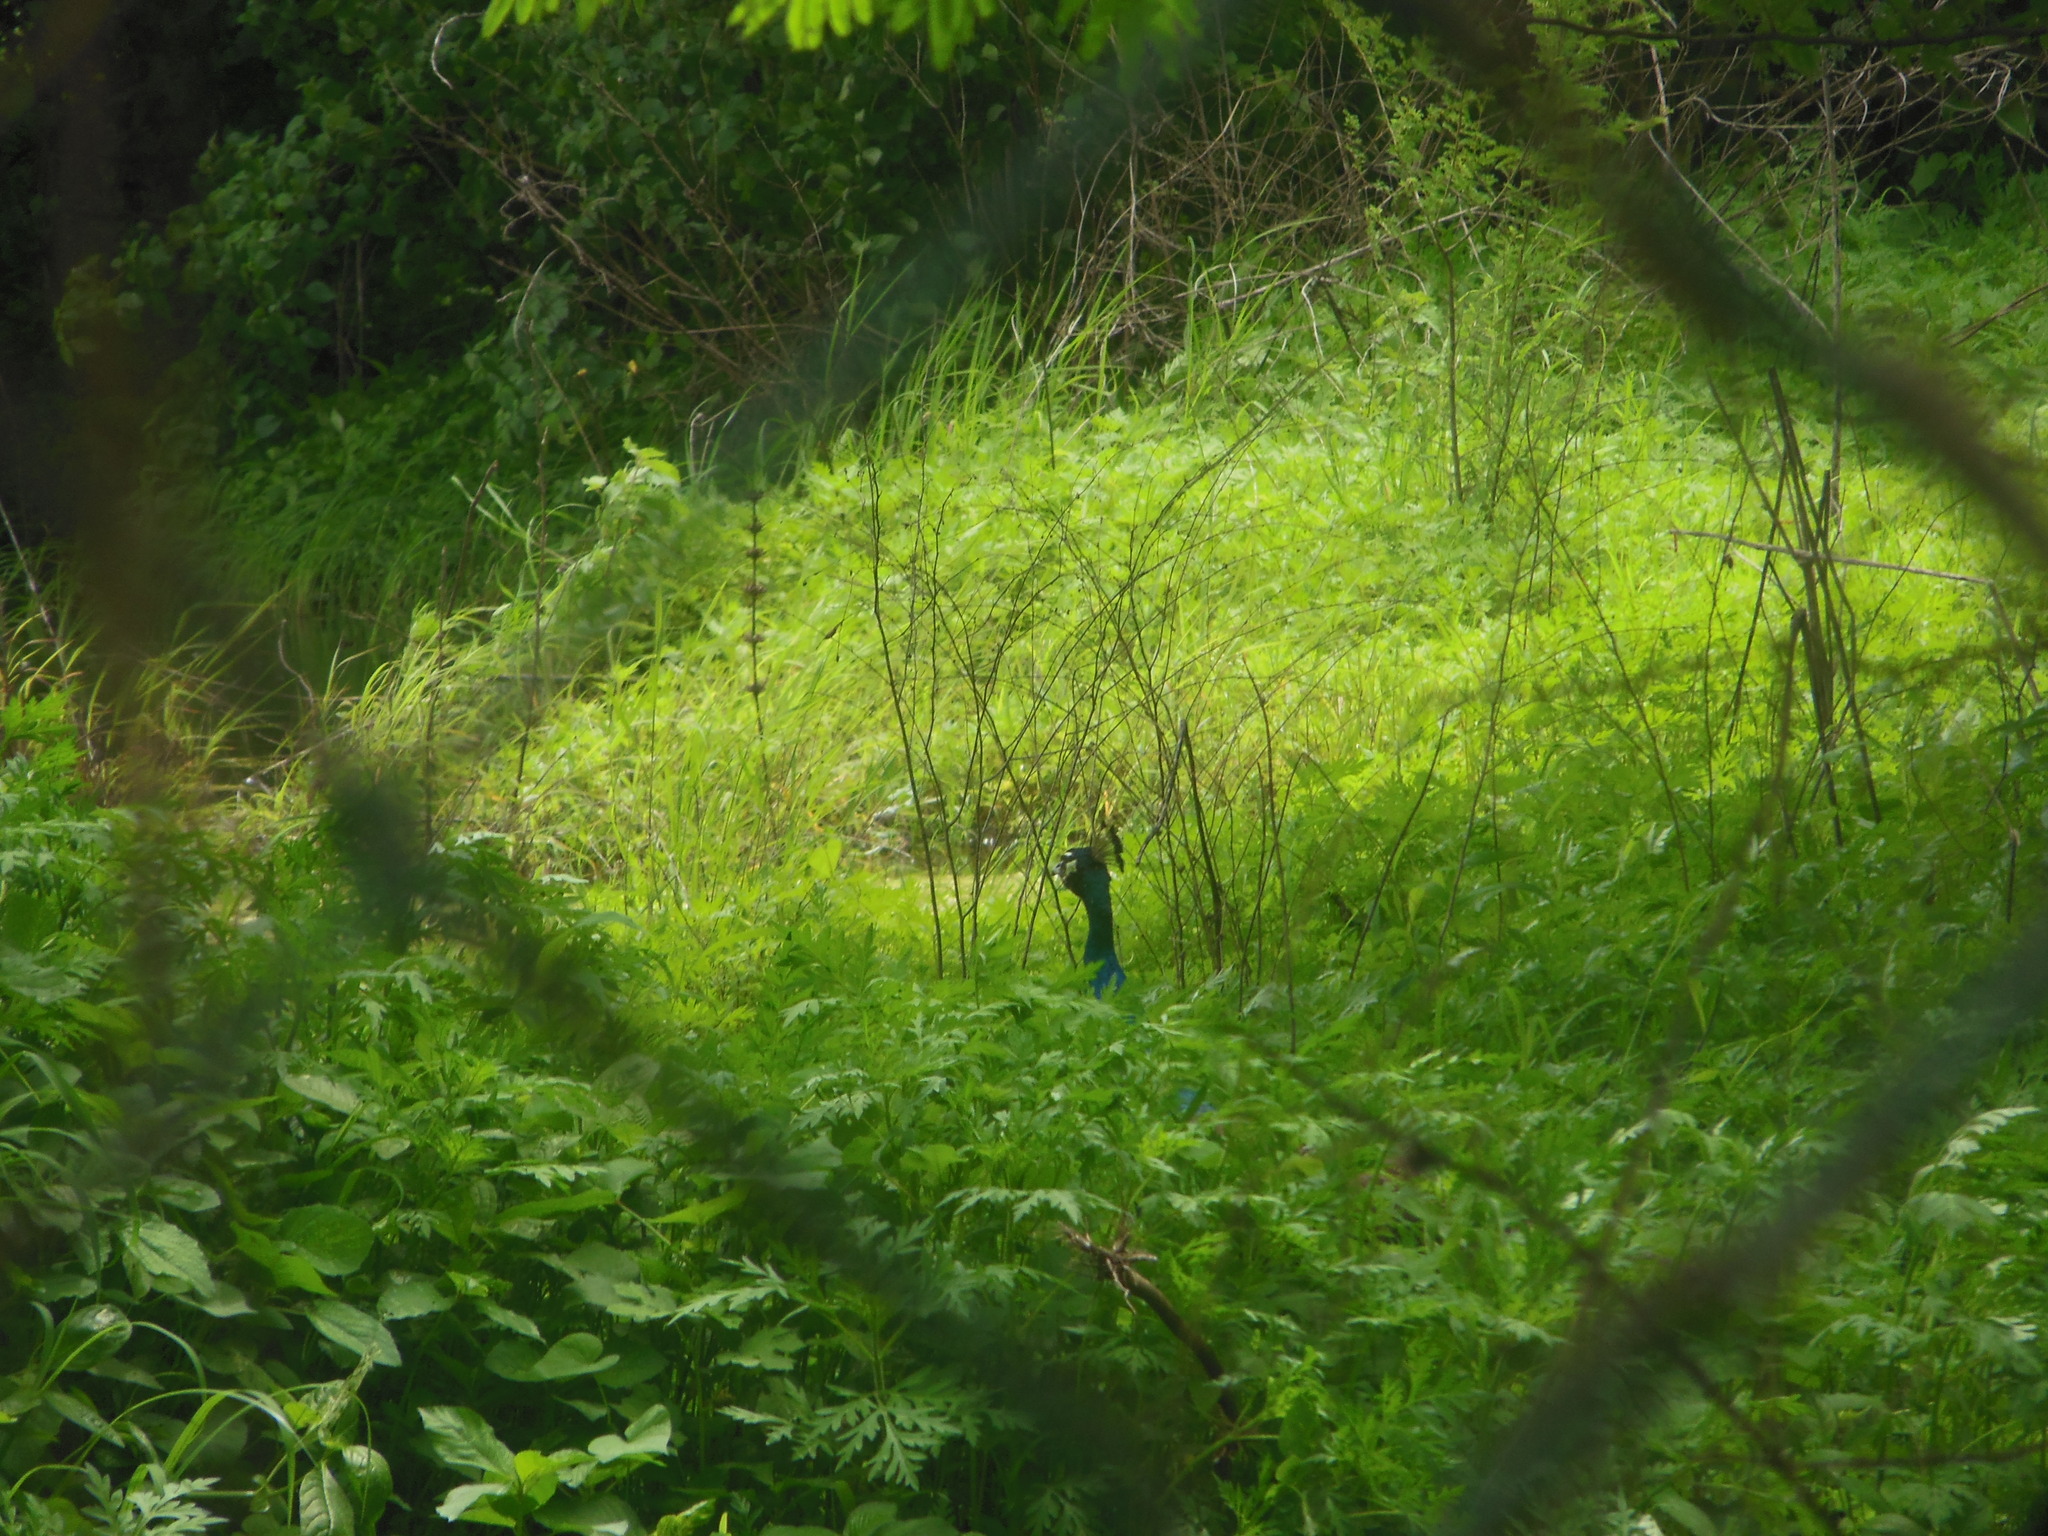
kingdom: Animalia
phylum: Chordata
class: Aves
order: Galliformes
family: Phasianidae
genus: Pavo
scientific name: Pavo cristatus
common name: Indian peafowl
